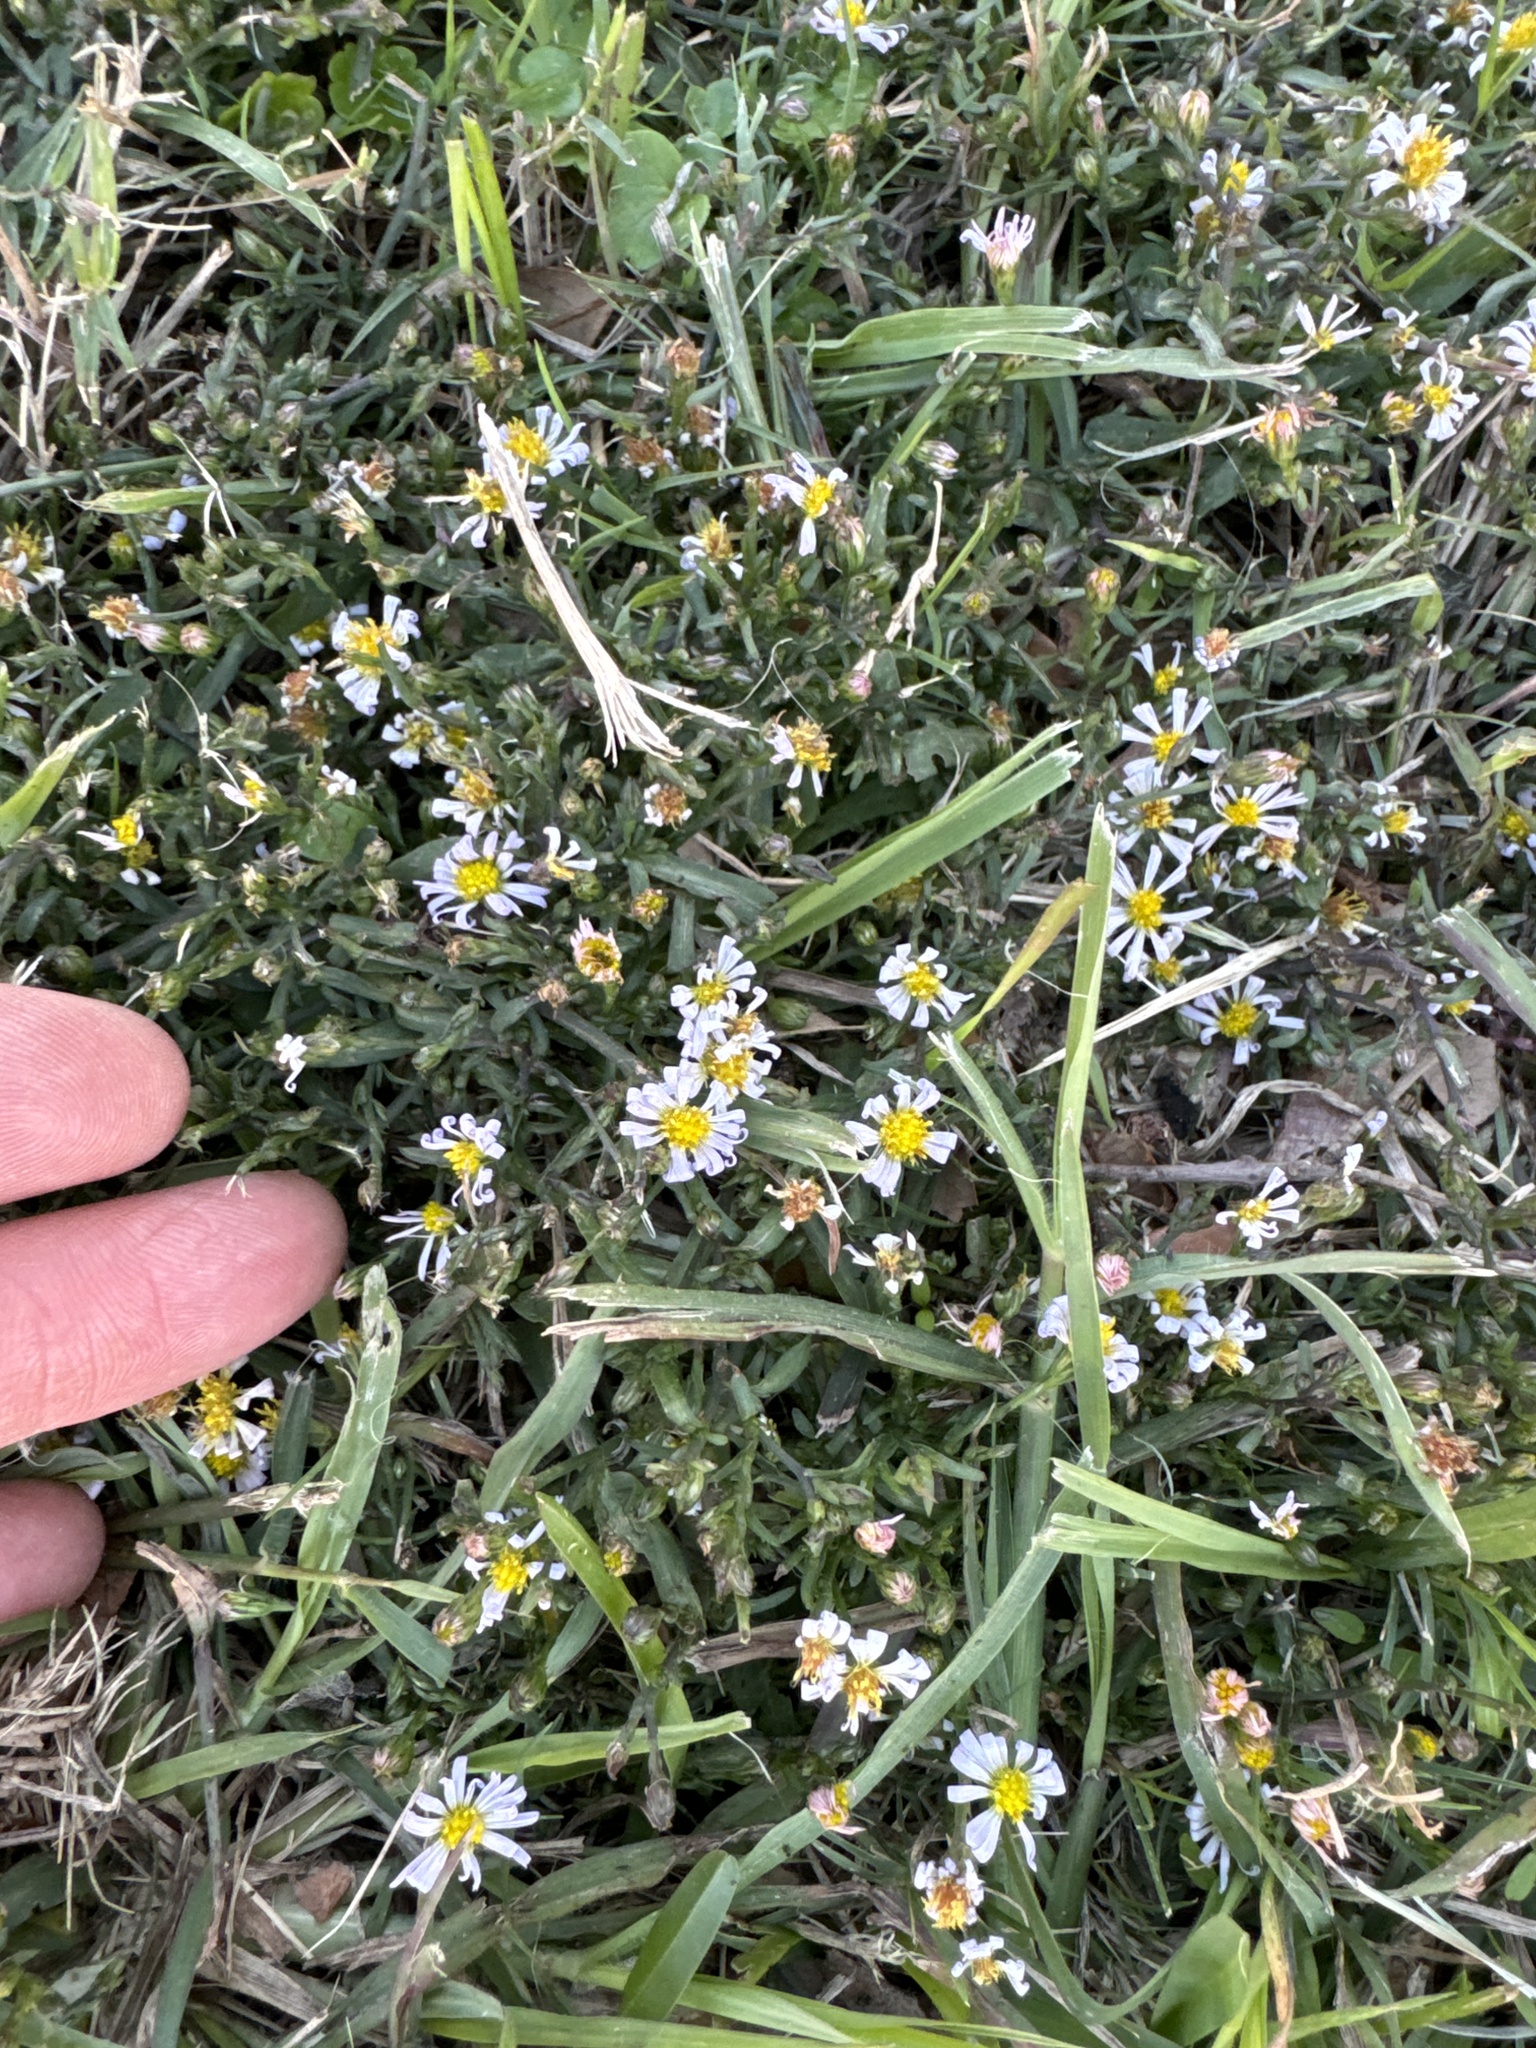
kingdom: Plantae
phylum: Tracheophyta
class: Magnoliopsida
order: Asterales
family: Asteraceae
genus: Symphyotrichum
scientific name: Symphyotrichum divaricatum
